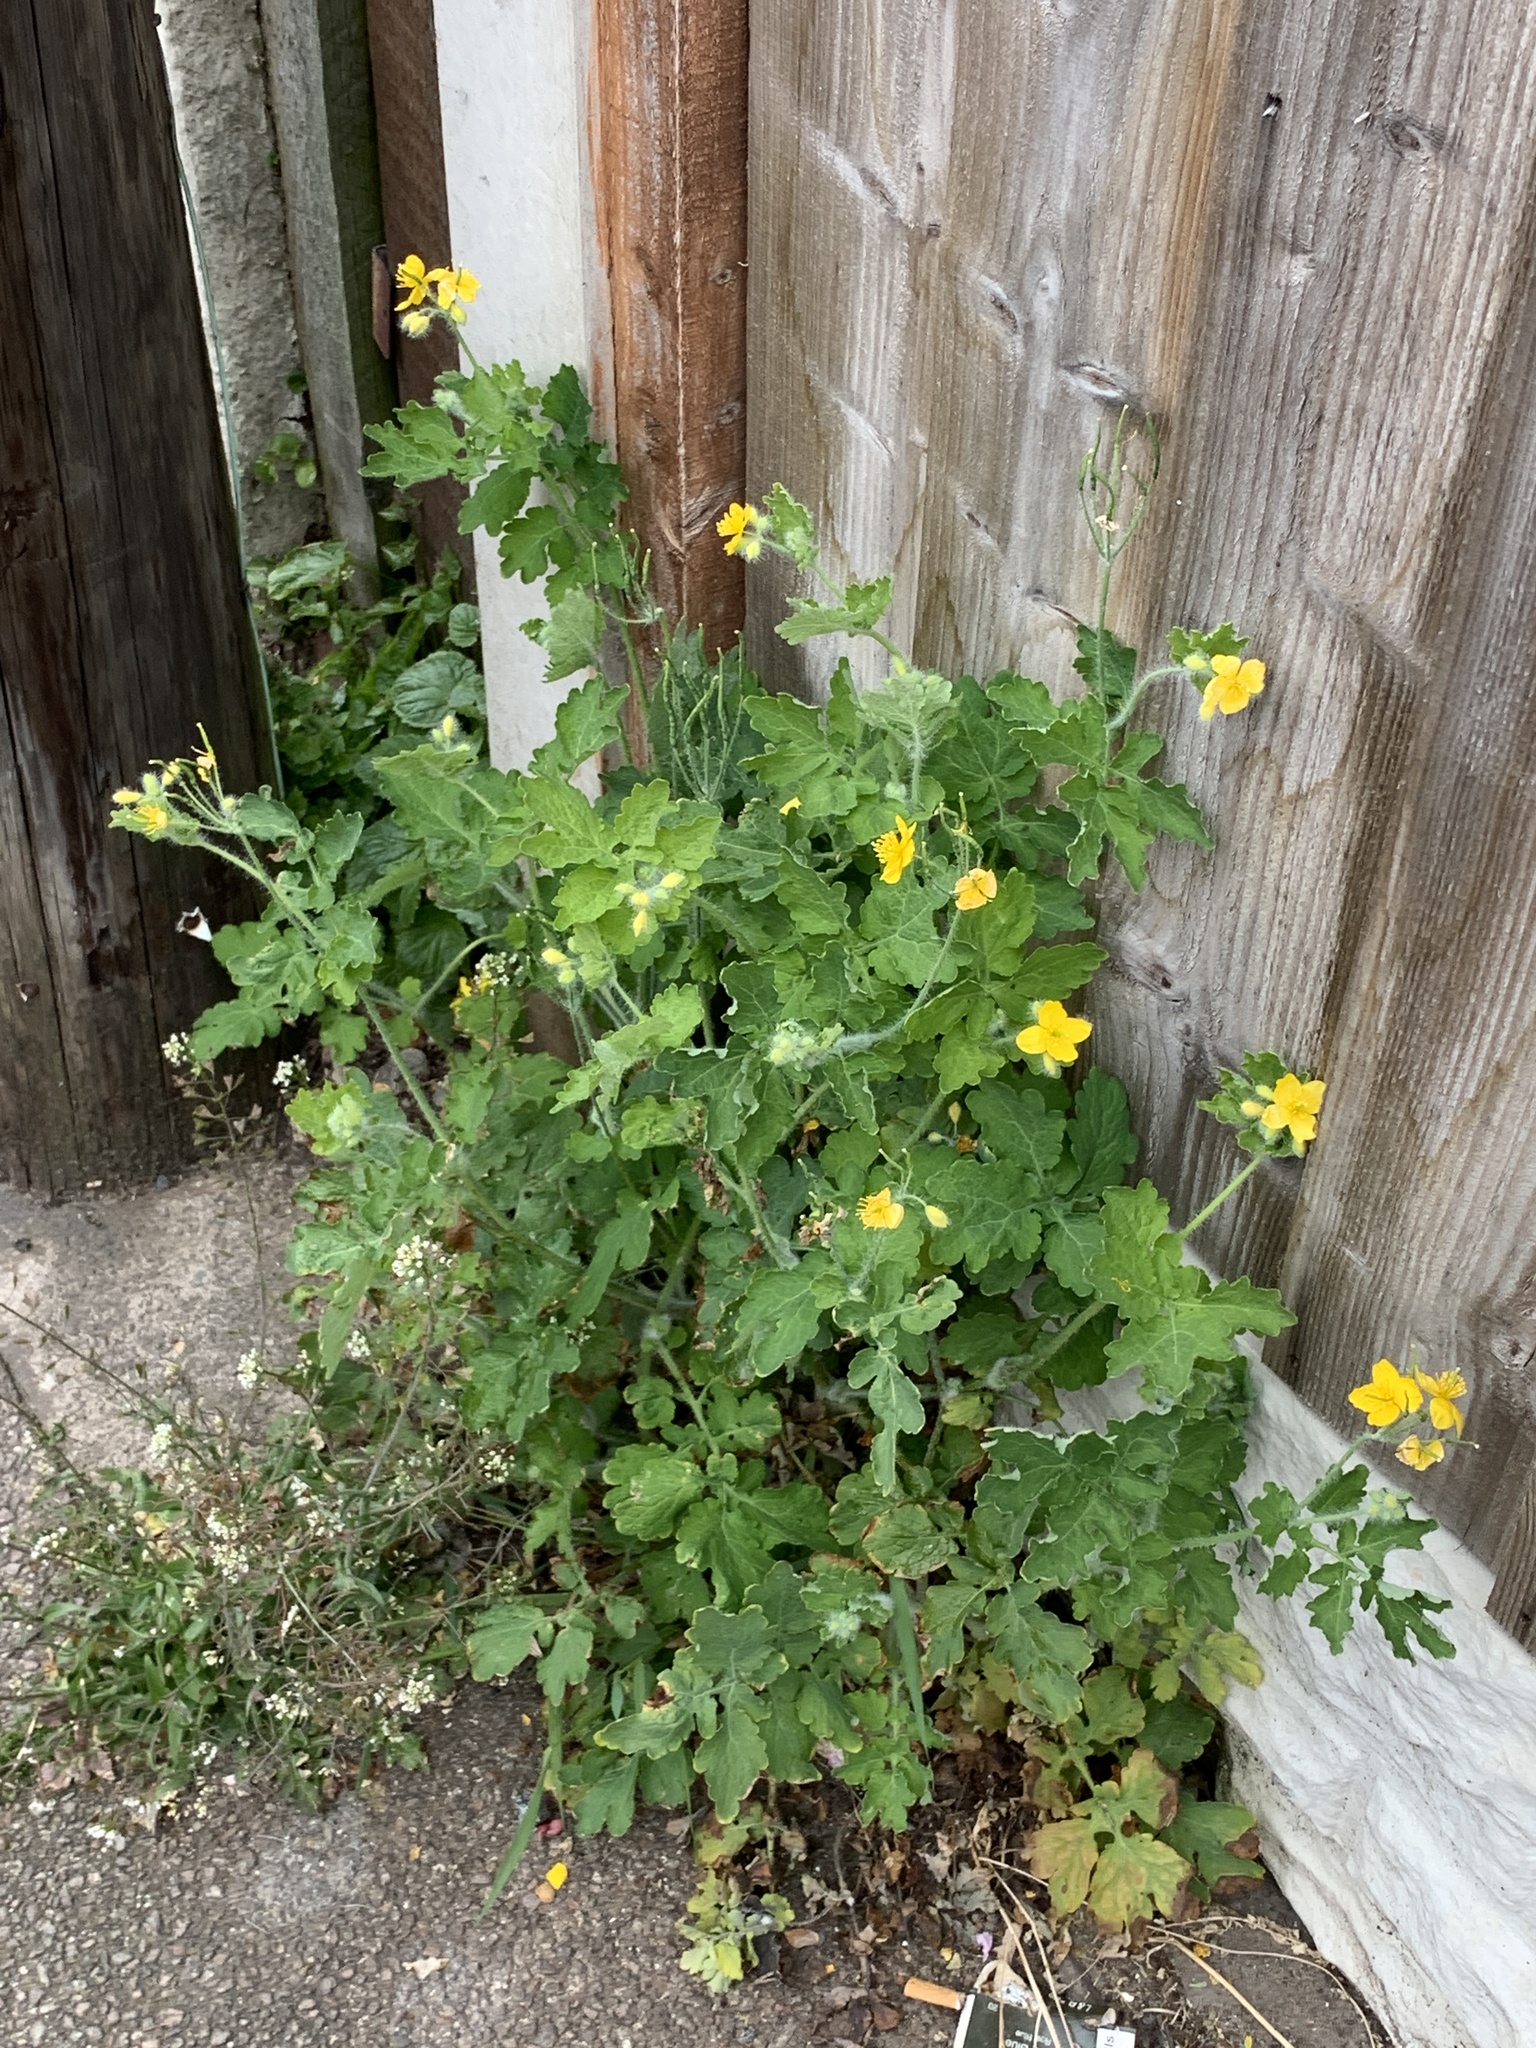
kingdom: Plantae
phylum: Tracheophyta
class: Magnoliopsida
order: Ranunculales
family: Papaveraceae
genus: Chelidonium
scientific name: Chelidonium majus
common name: Greater celandine
